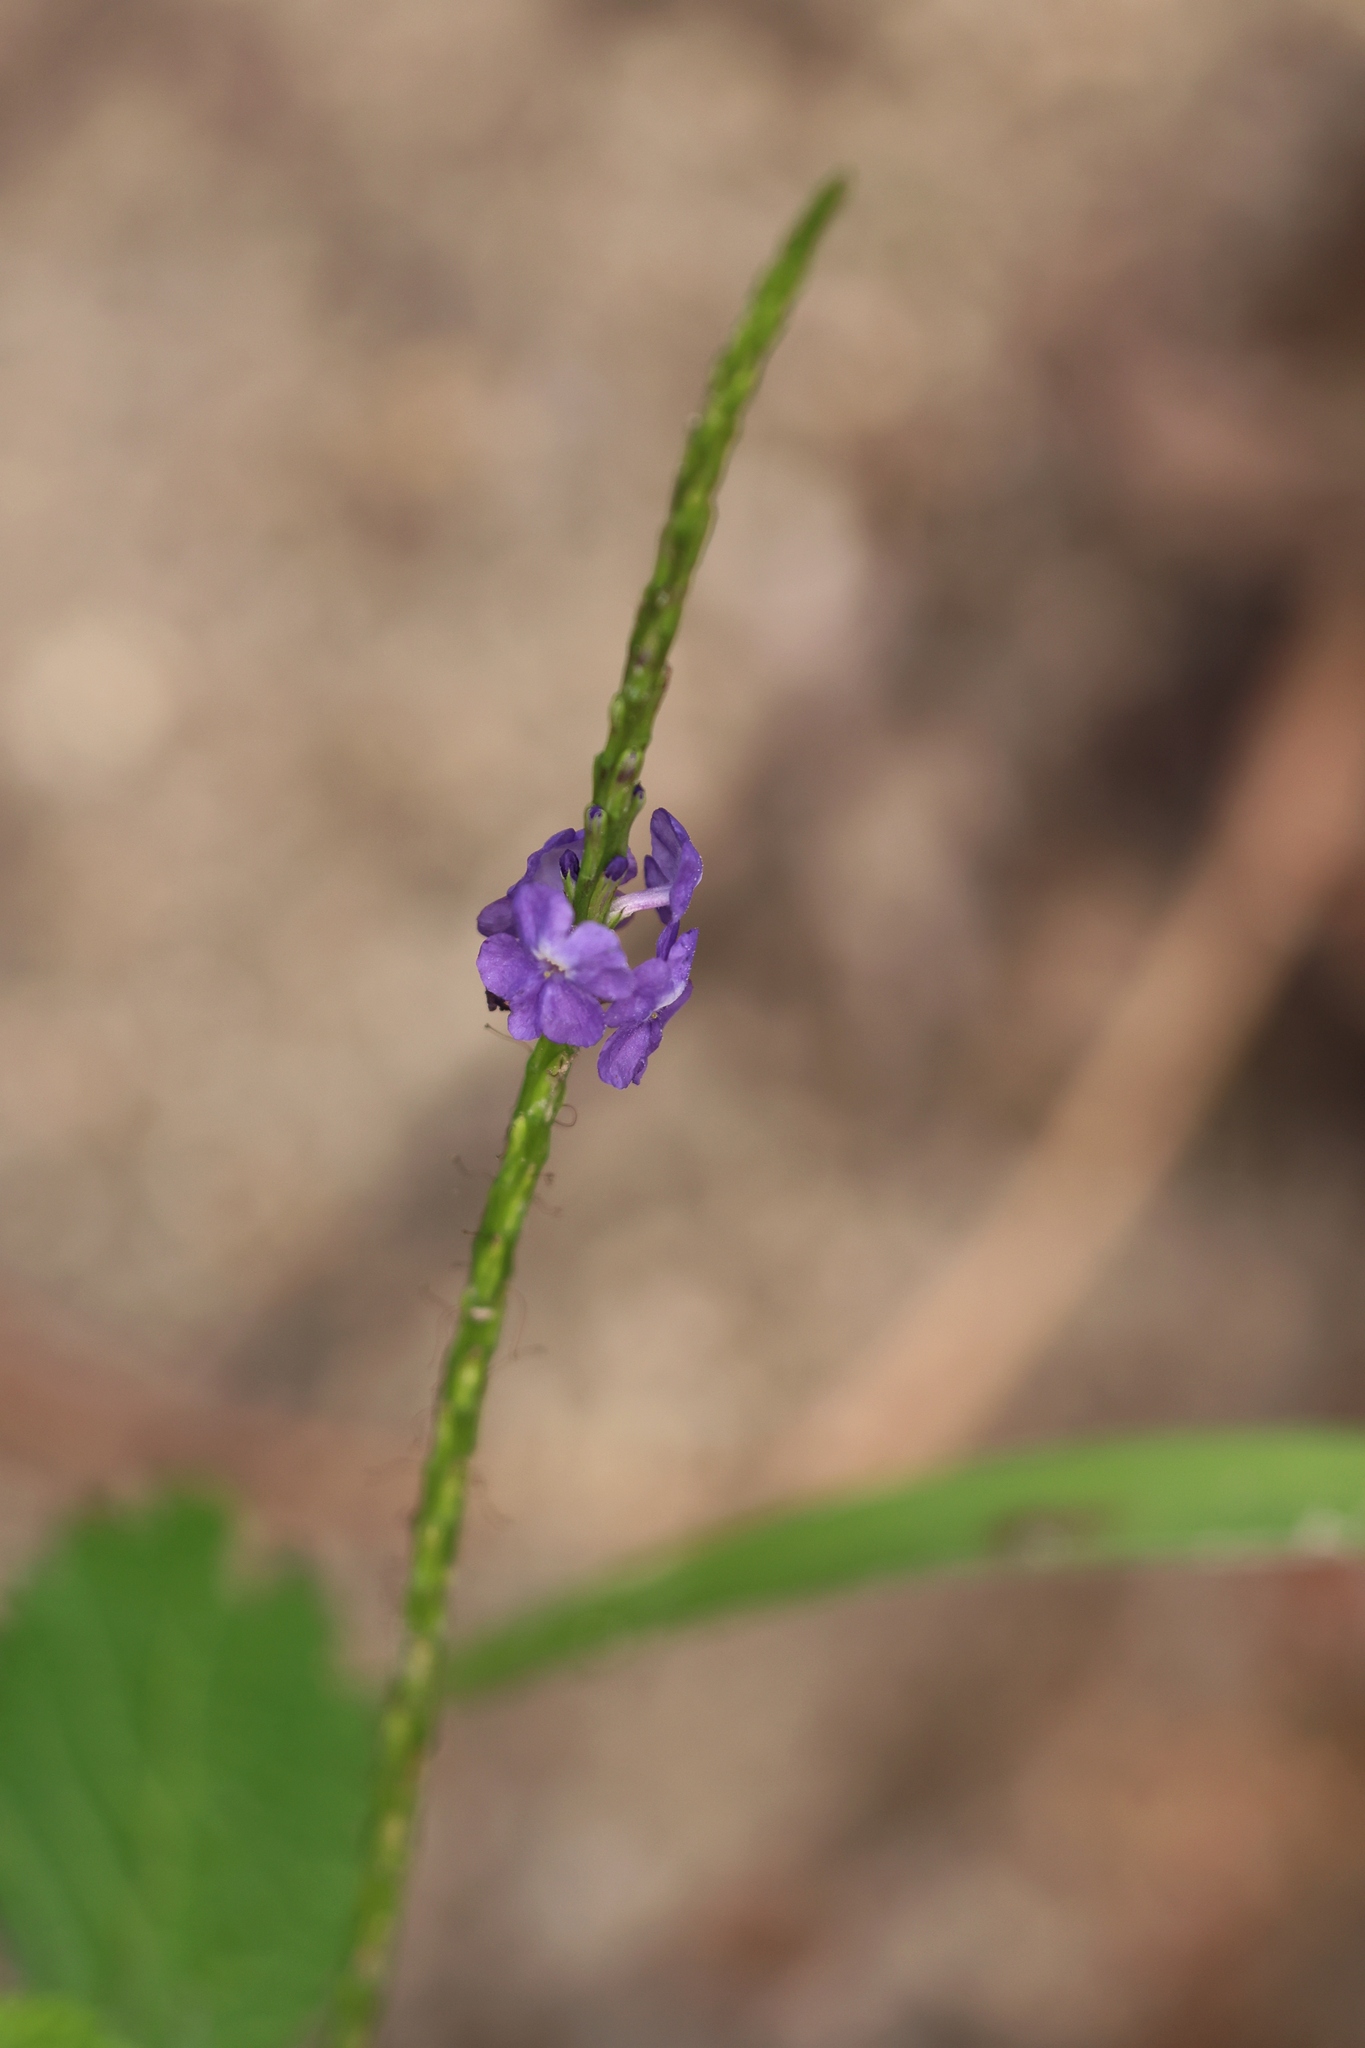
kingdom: Plantae
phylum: Tracheophyta
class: Magnoliopsida
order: Lamiales
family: Verbenaceae
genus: Stachytarpheta
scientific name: Stachytarpheta jamaicensis
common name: Light-blue snakeweed
